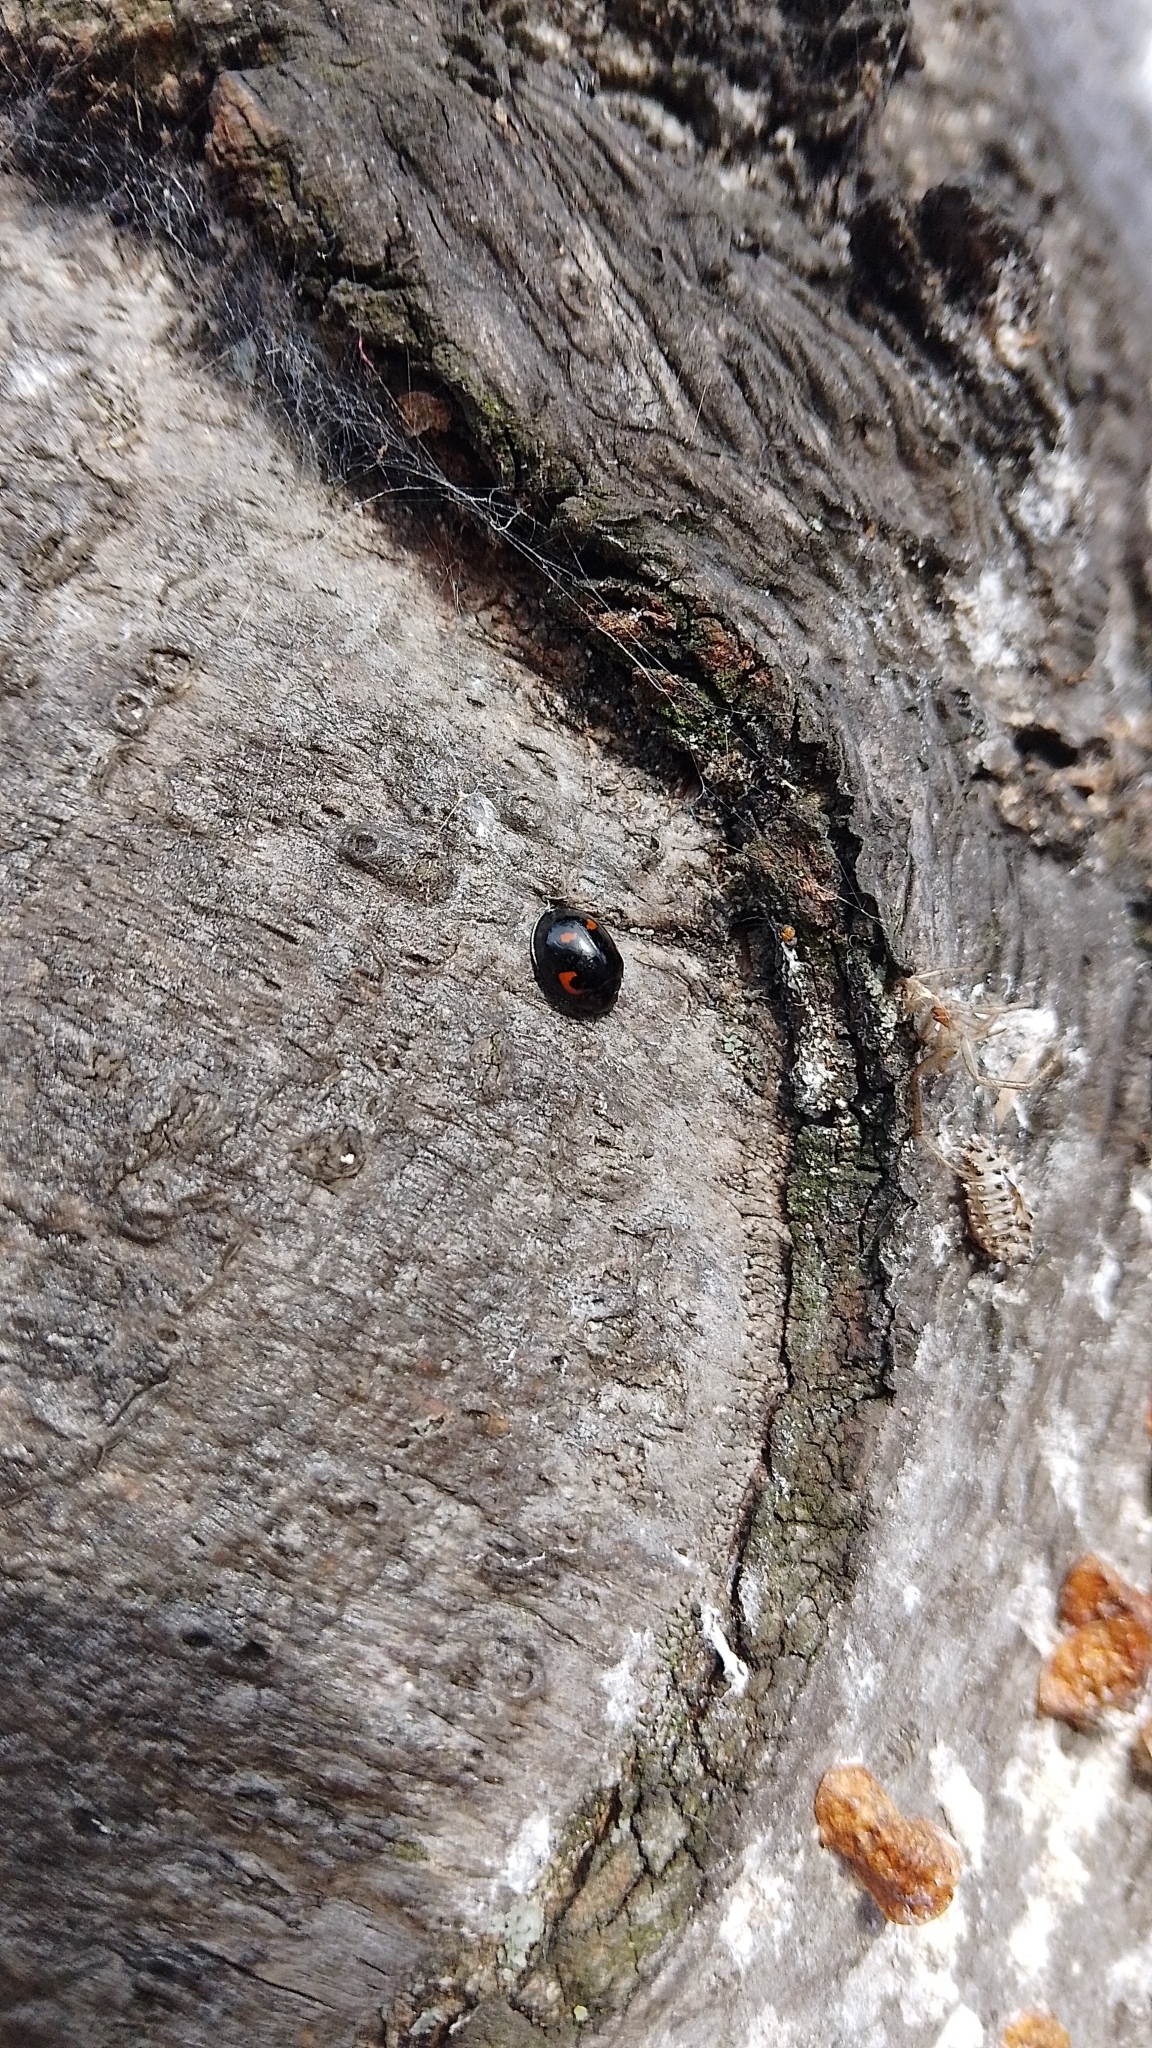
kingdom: Animalia
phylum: Arthropoda
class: Insecta
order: Coleoptera
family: Coccinellidae
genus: Brumus
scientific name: Brumus quadripustulatus
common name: Ladybird beetle
